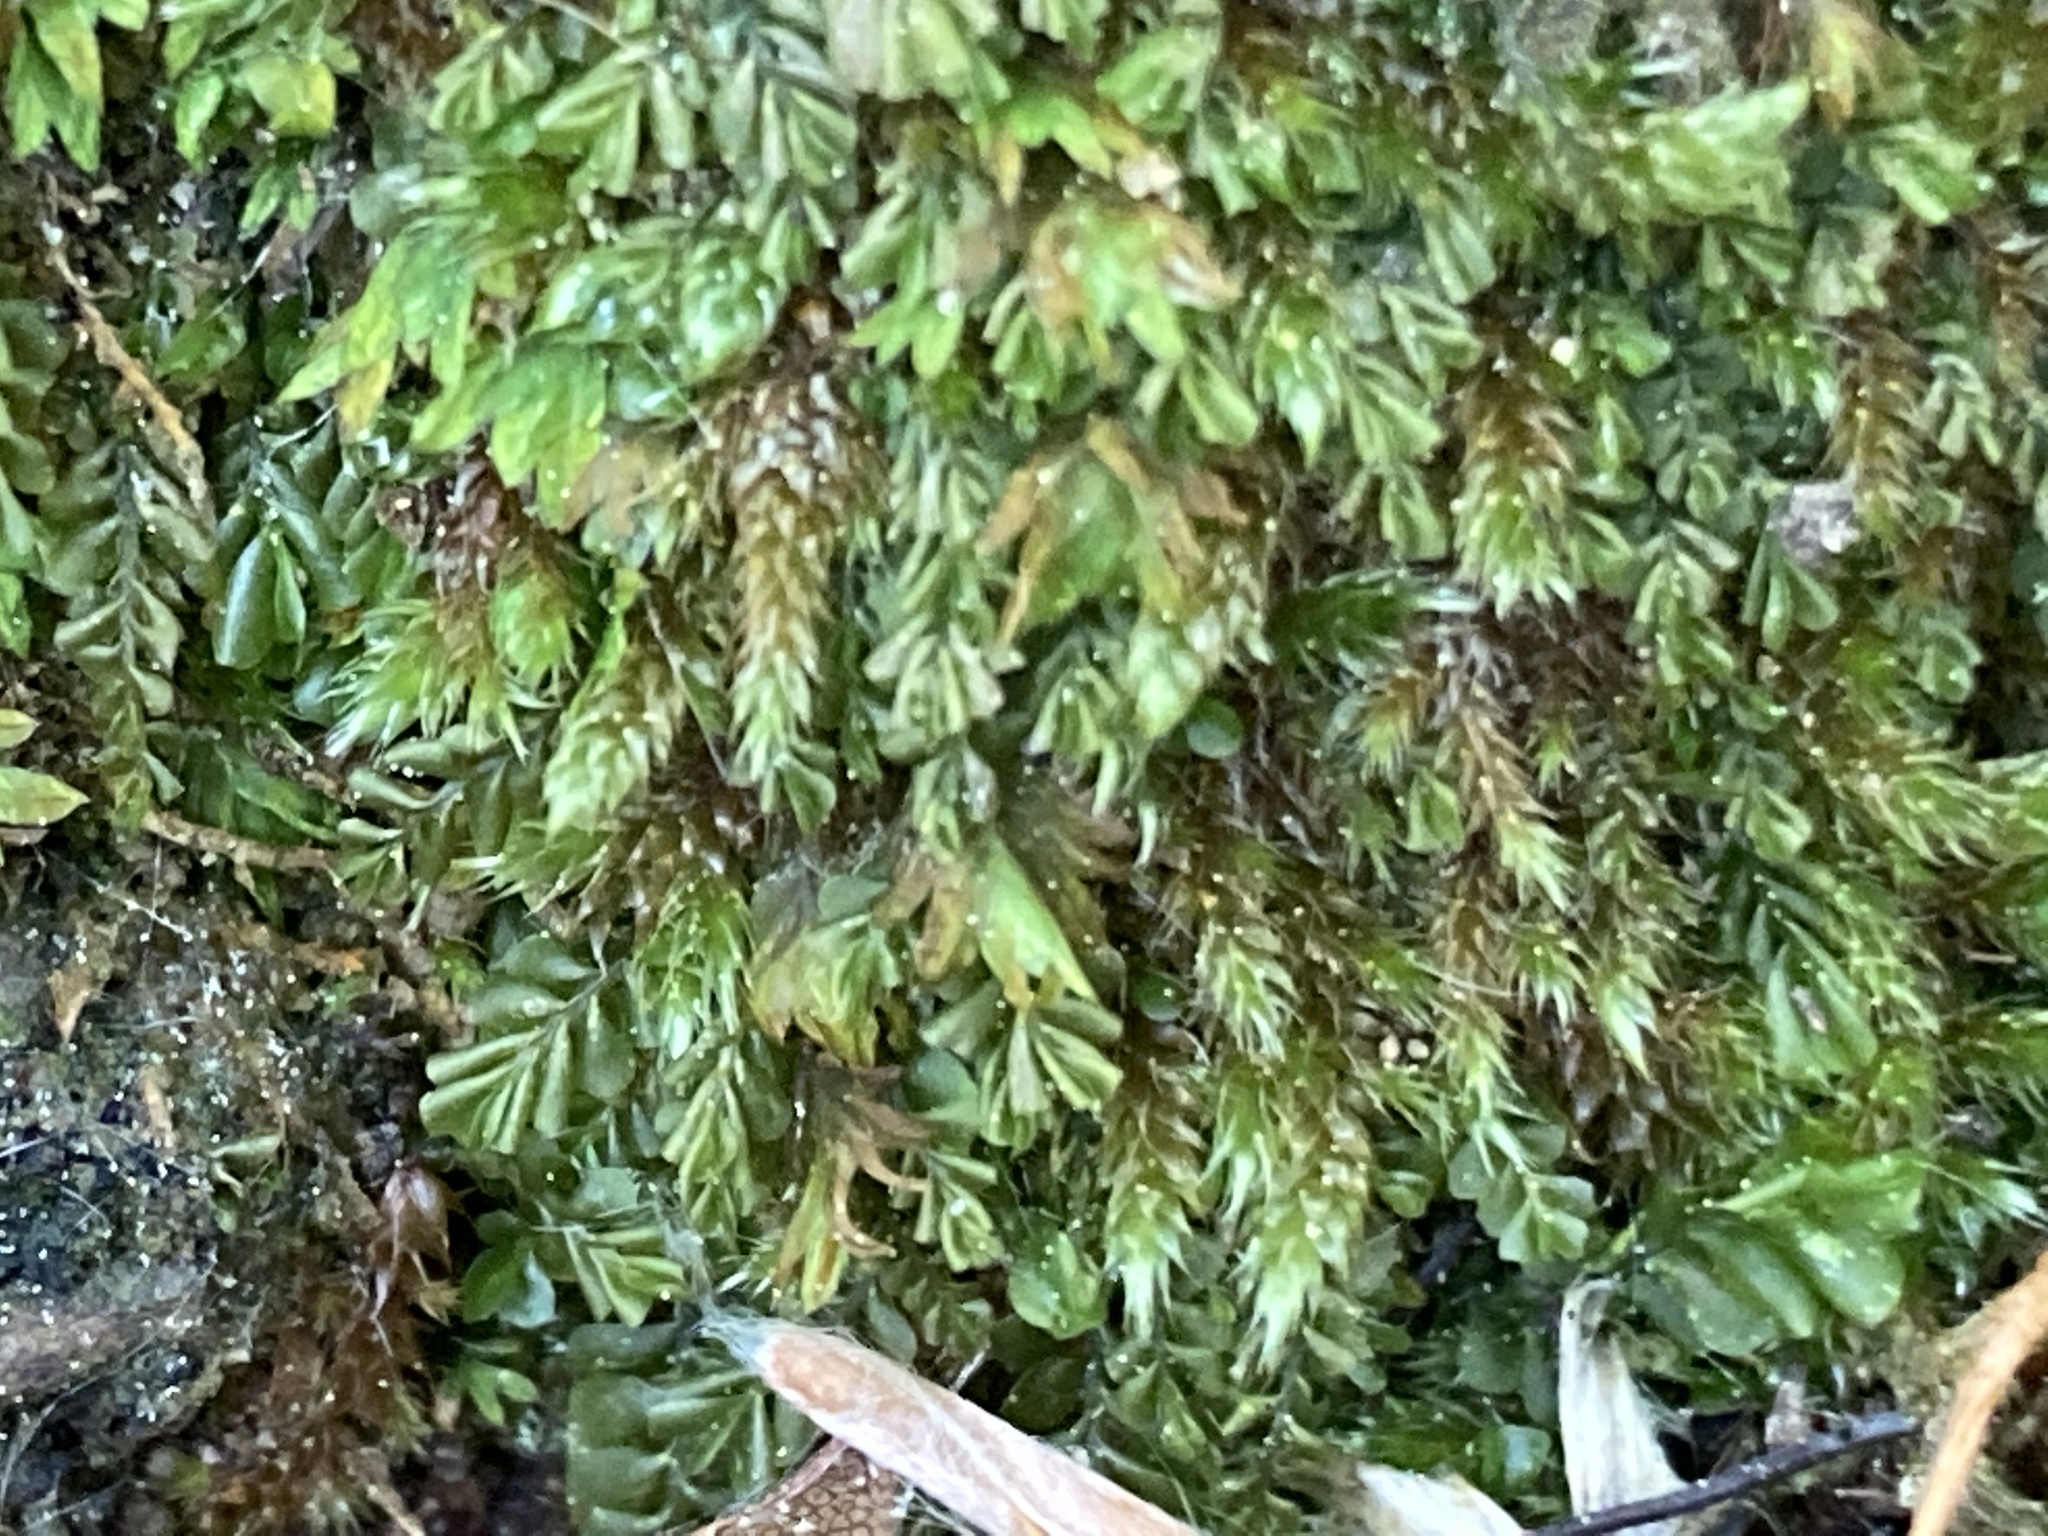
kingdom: Plantae
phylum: Marchantiophyta
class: Jungermanniopsida
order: Jungermanniales
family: Plagiochilaceae
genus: Plagiochila
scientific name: Plagiochila porelloides
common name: Lesser featherwort
